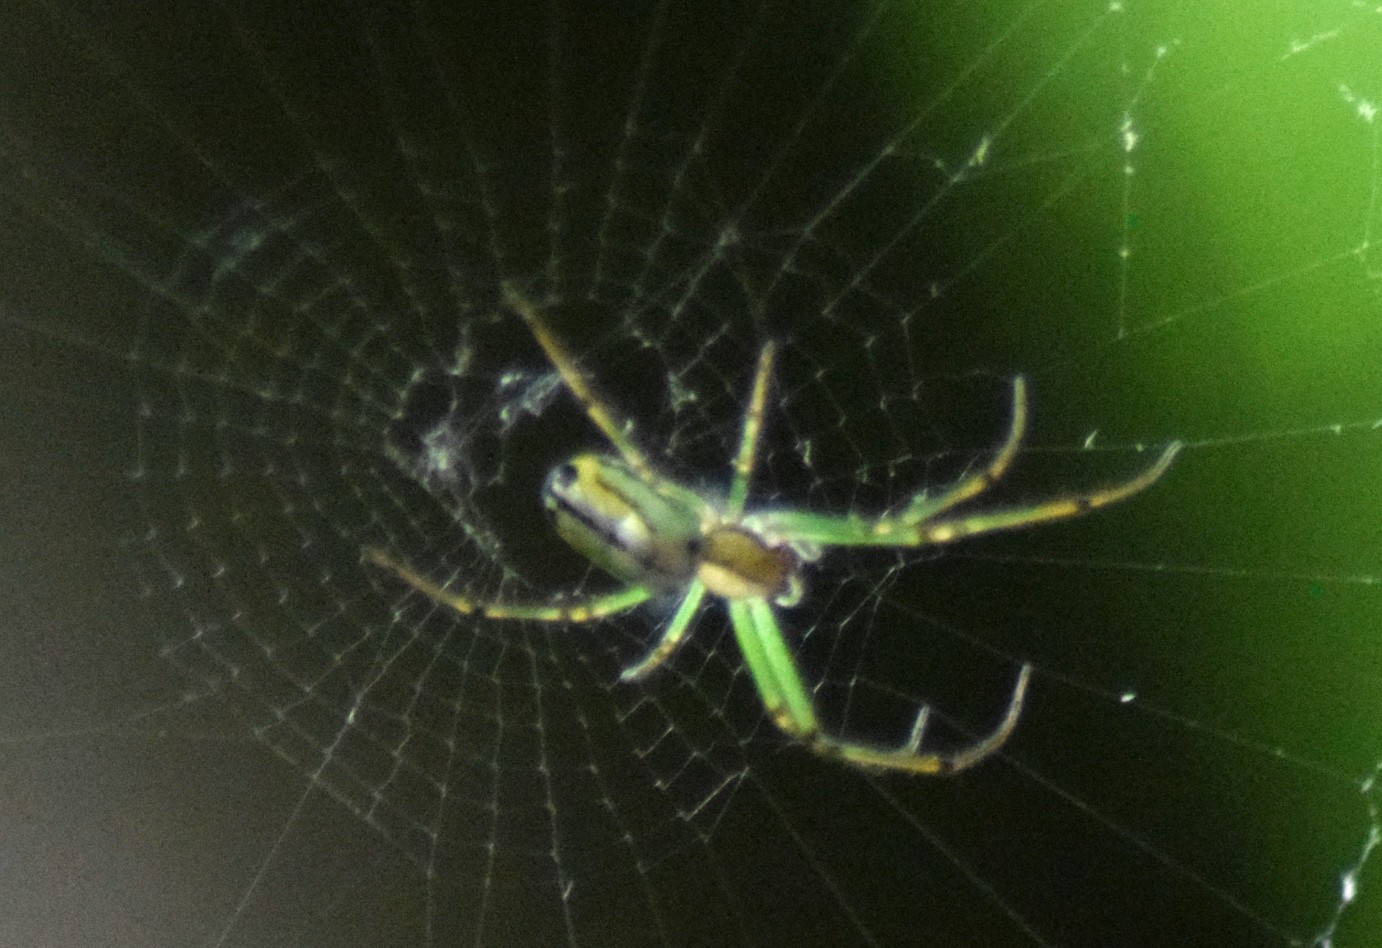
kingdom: Animalia
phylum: Arthropoda
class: Arachnida
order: Araneae
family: Tetragnathidae
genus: Leucauge
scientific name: Leucauge venusta
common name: Longjawed orb weavers
